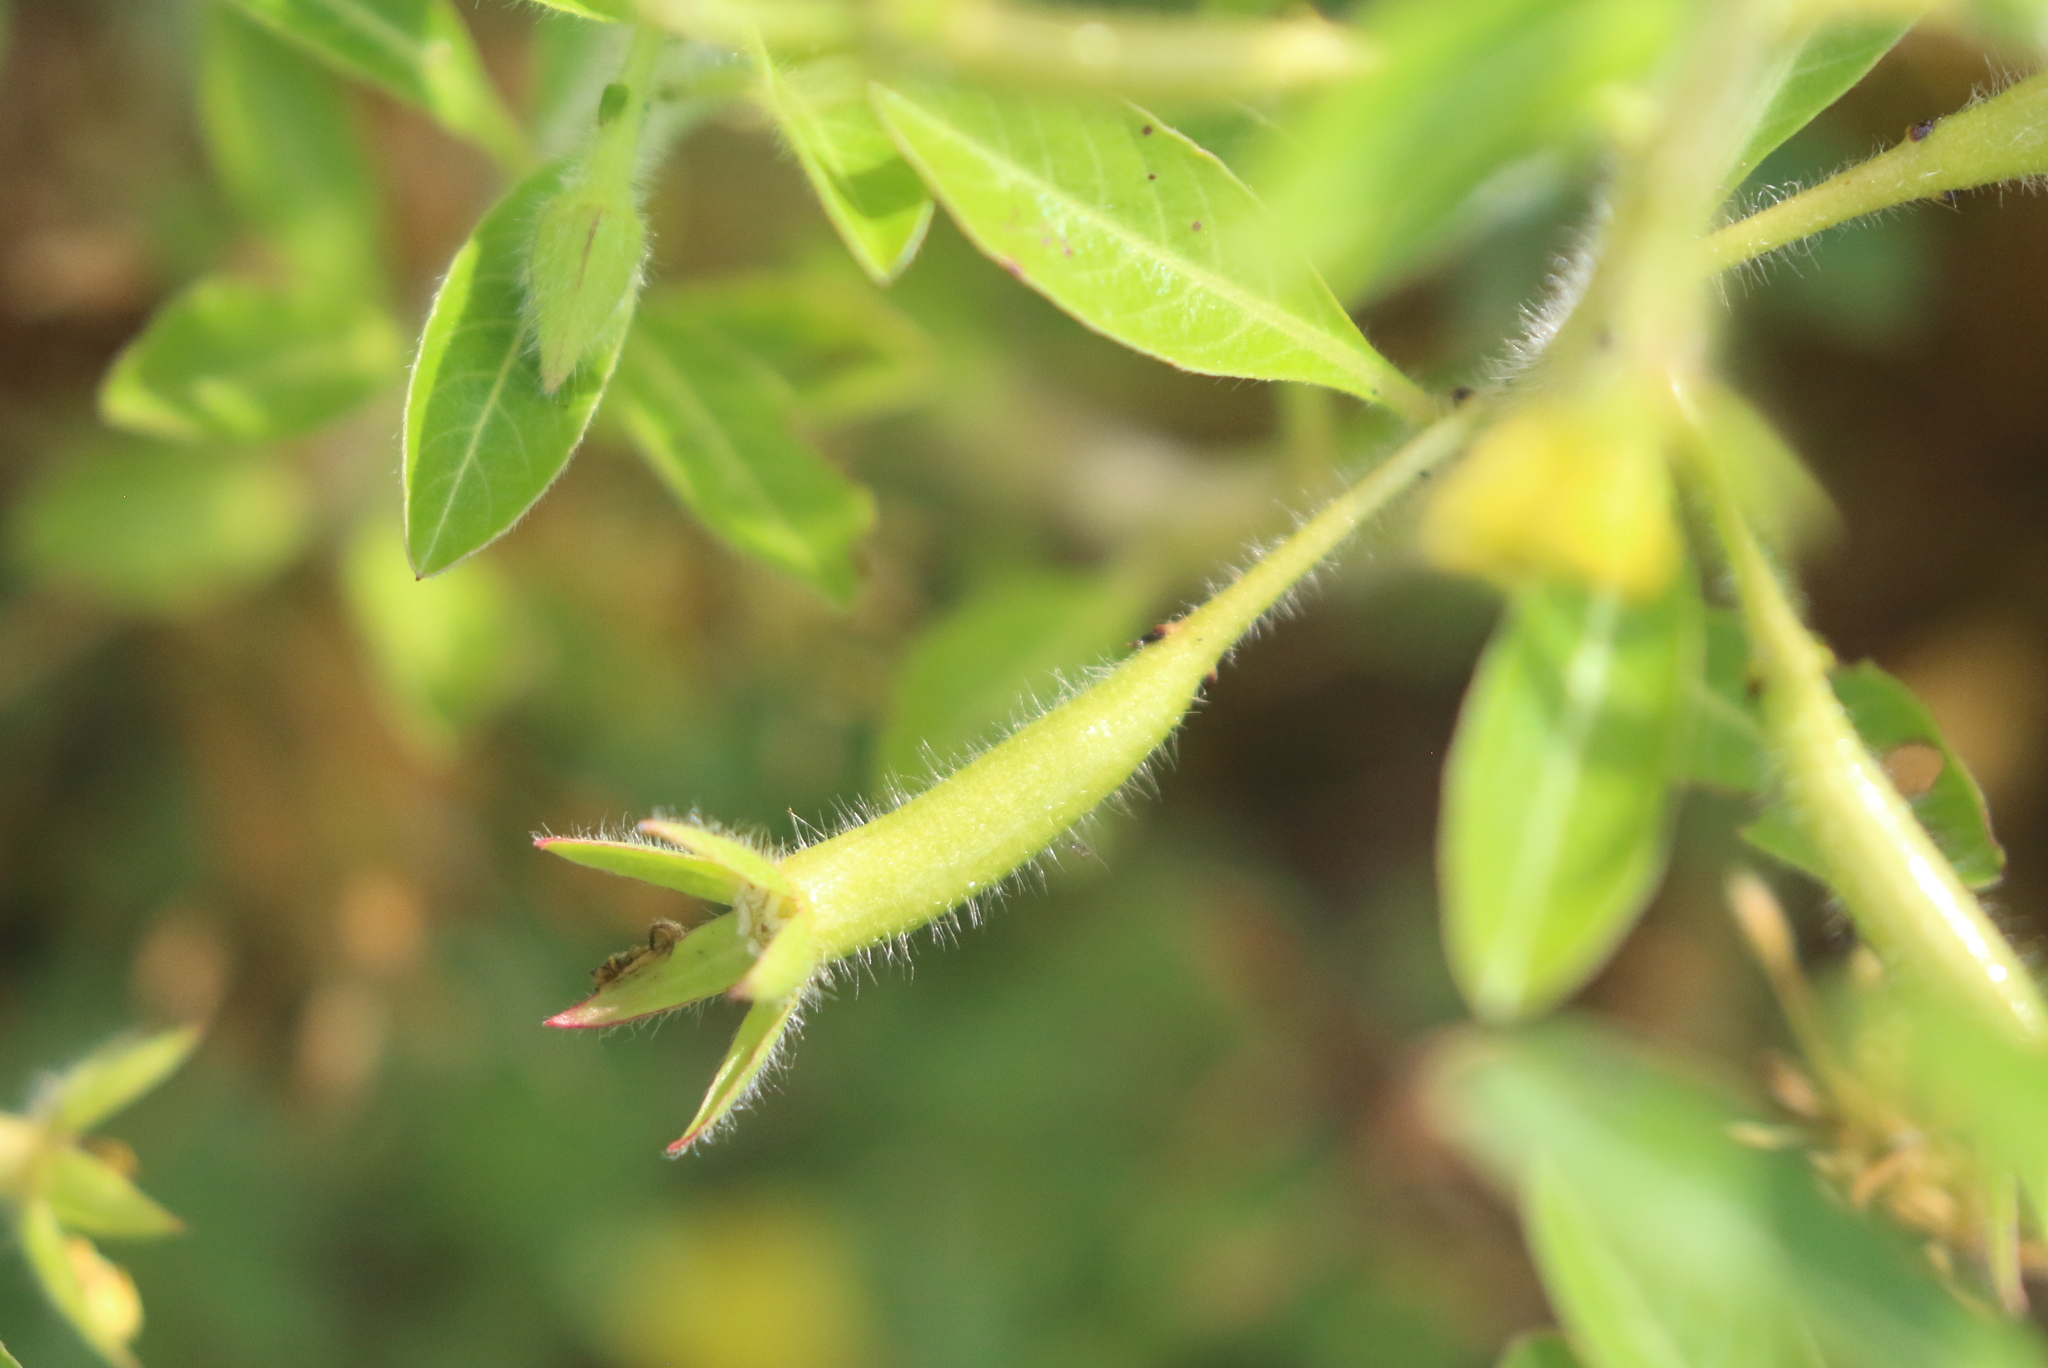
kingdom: Plantae
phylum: Tracheophyta
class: Magnoliopsida
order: Myrtales
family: Onagraceae
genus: Ludwigia
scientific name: Ludwigia peploides
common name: Floating primrose-willow
